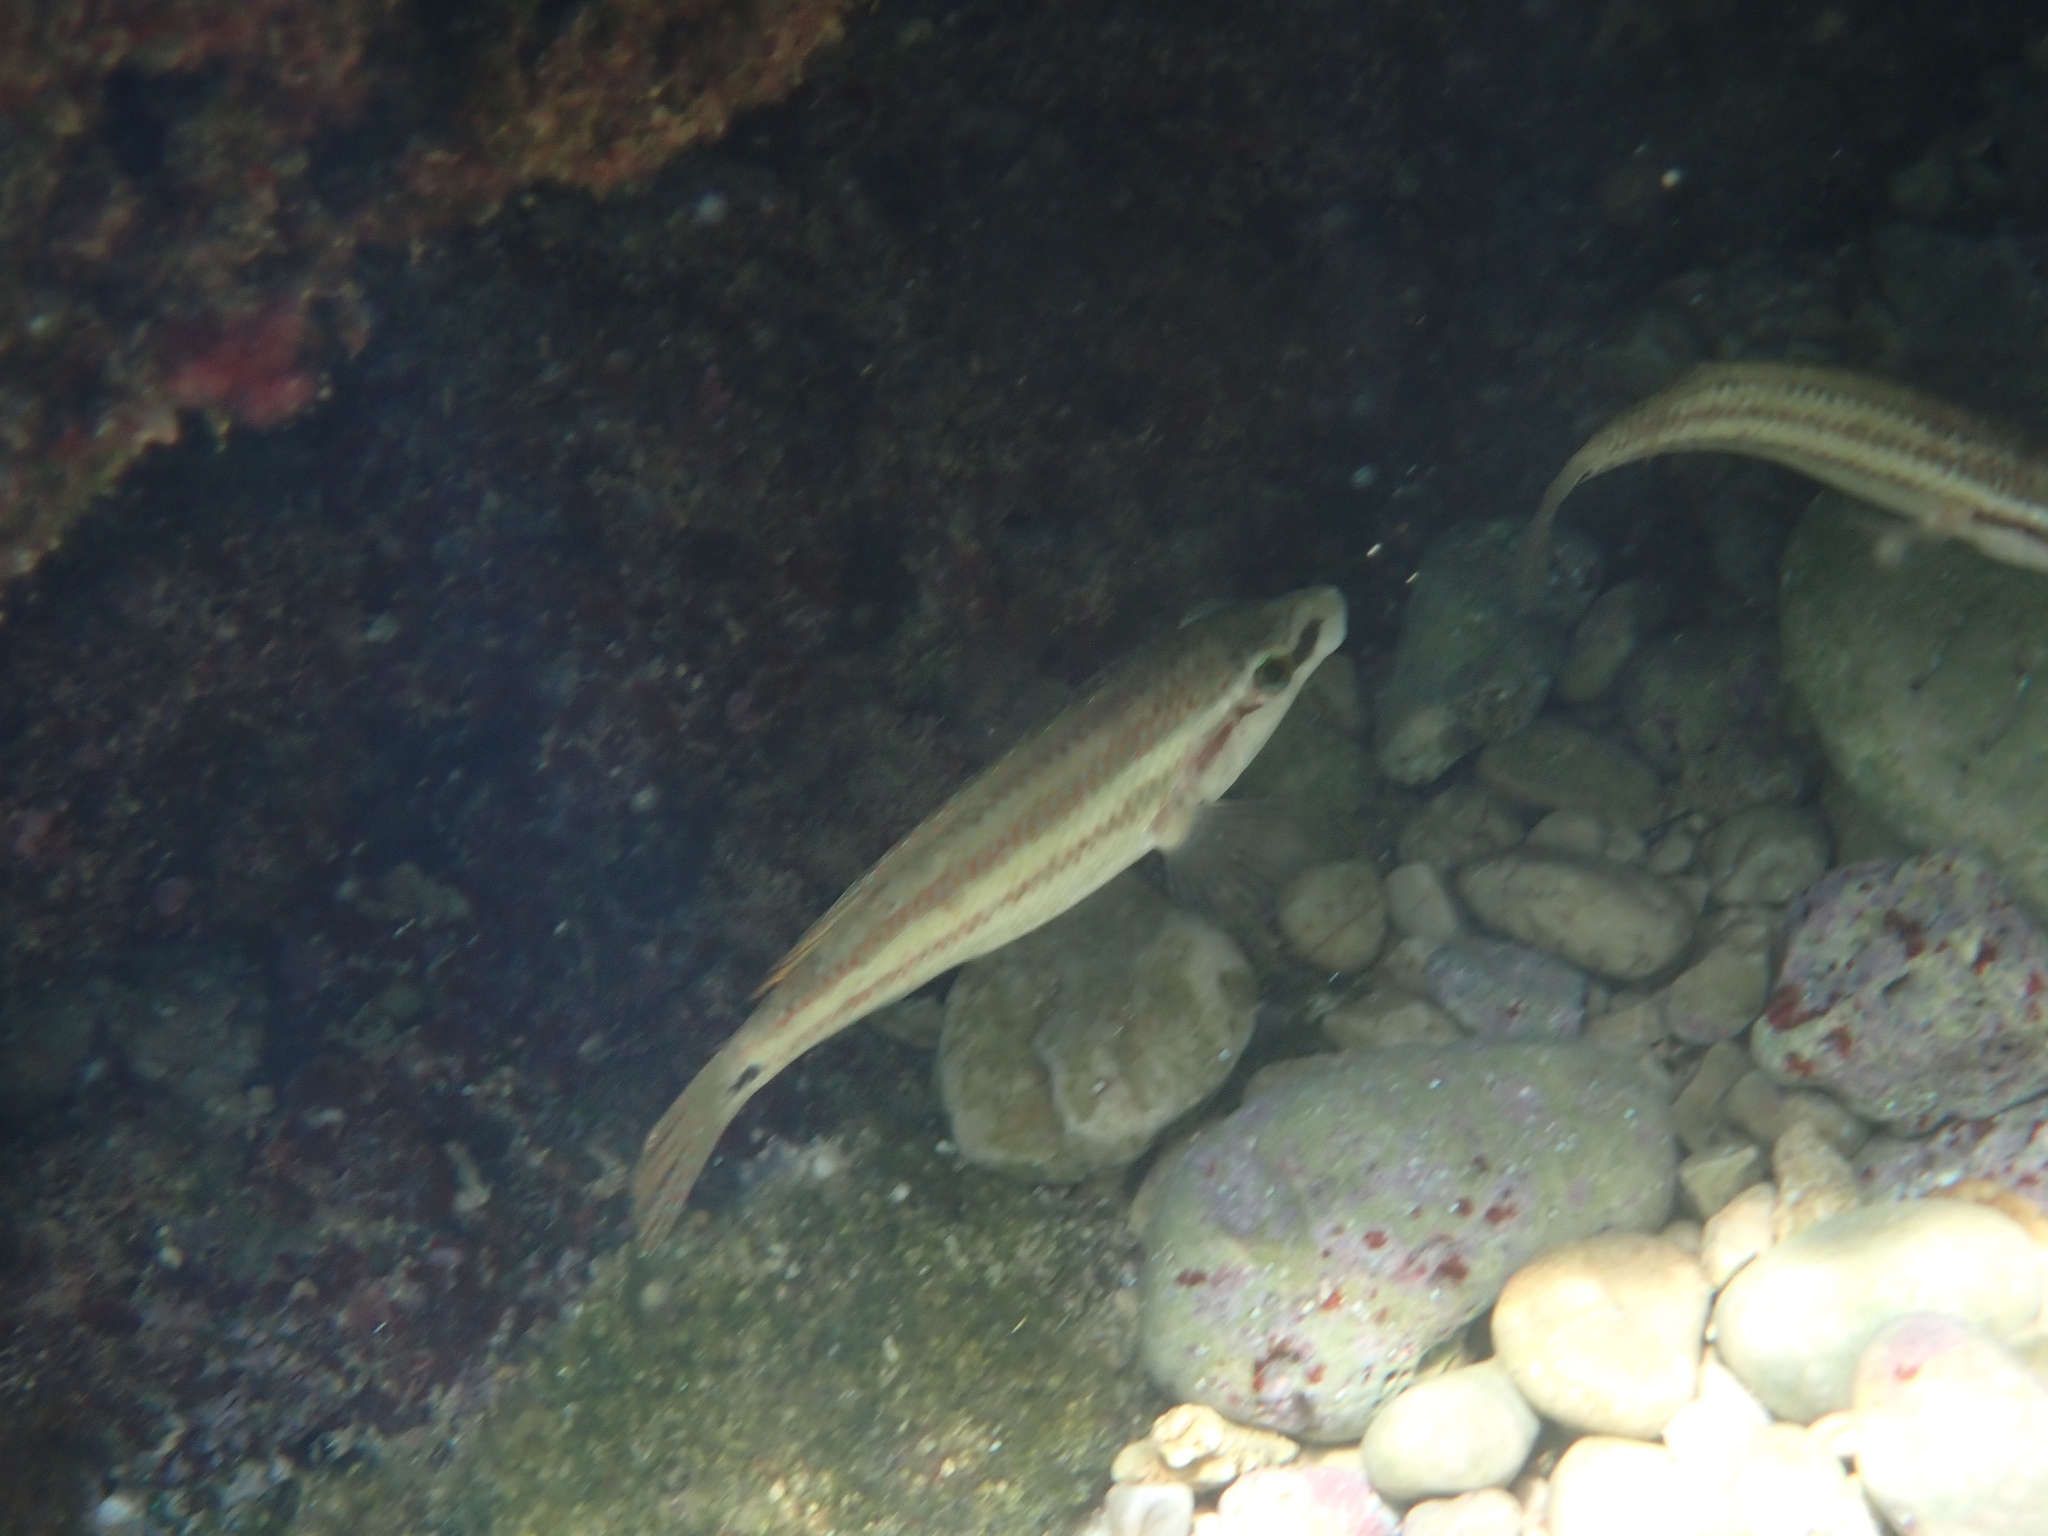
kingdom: Animalia
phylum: Chordata
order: Perciformes
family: Labridae
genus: Symphodus
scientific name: Symphodus tinca
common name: Peacock wrasse
